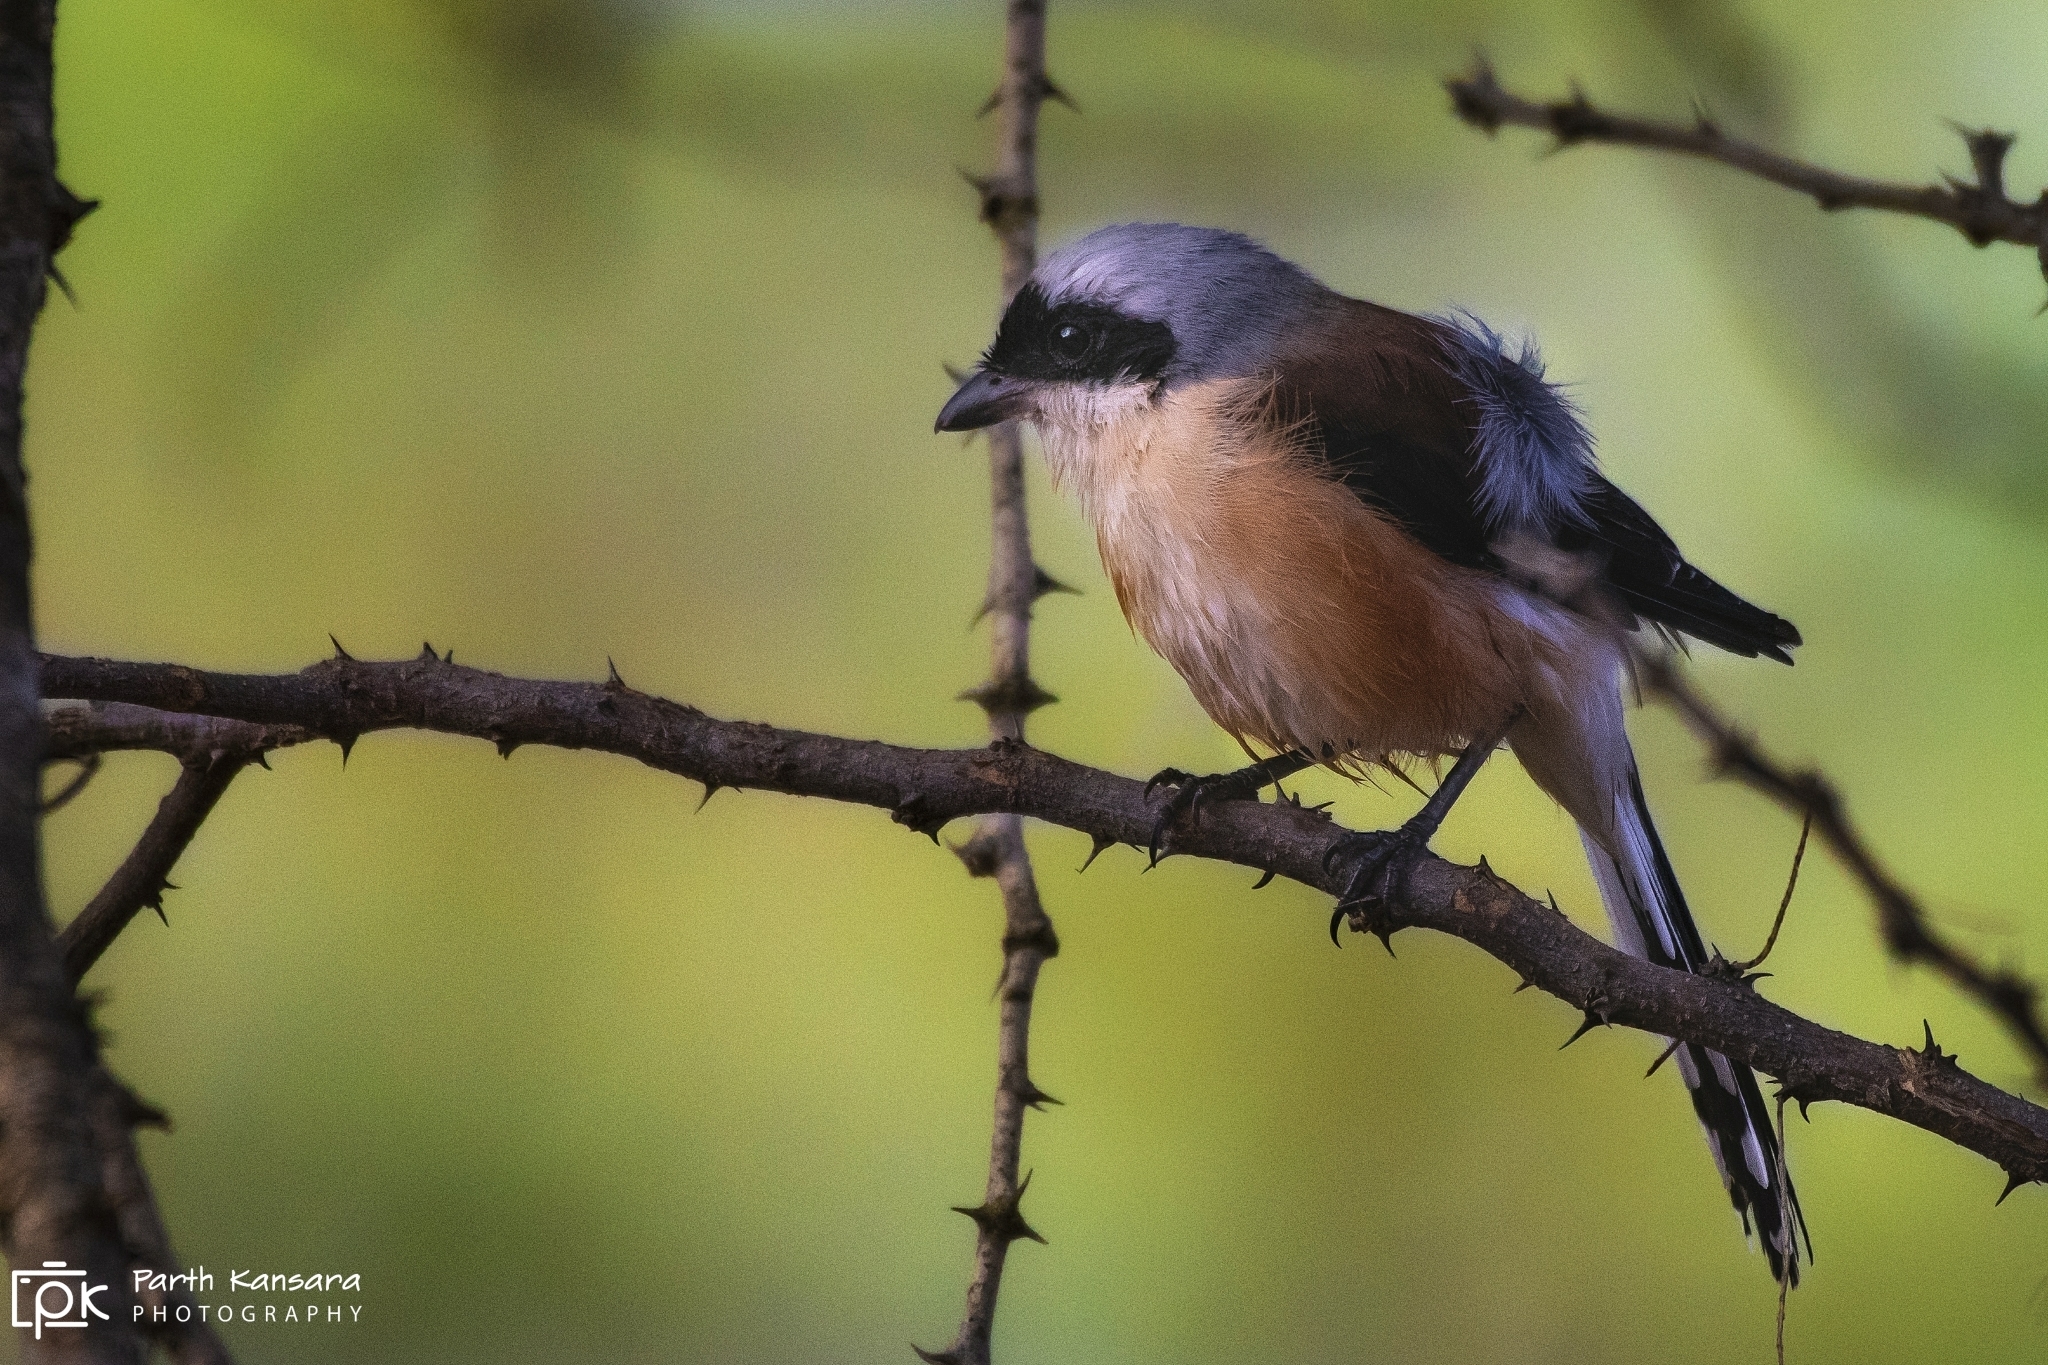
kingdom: Animalia
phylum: Chordata
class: Aves
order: Passeriformes
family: Laniidae
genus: Lanius
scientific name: Lanius vittatus
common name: Bay-backed shrike
